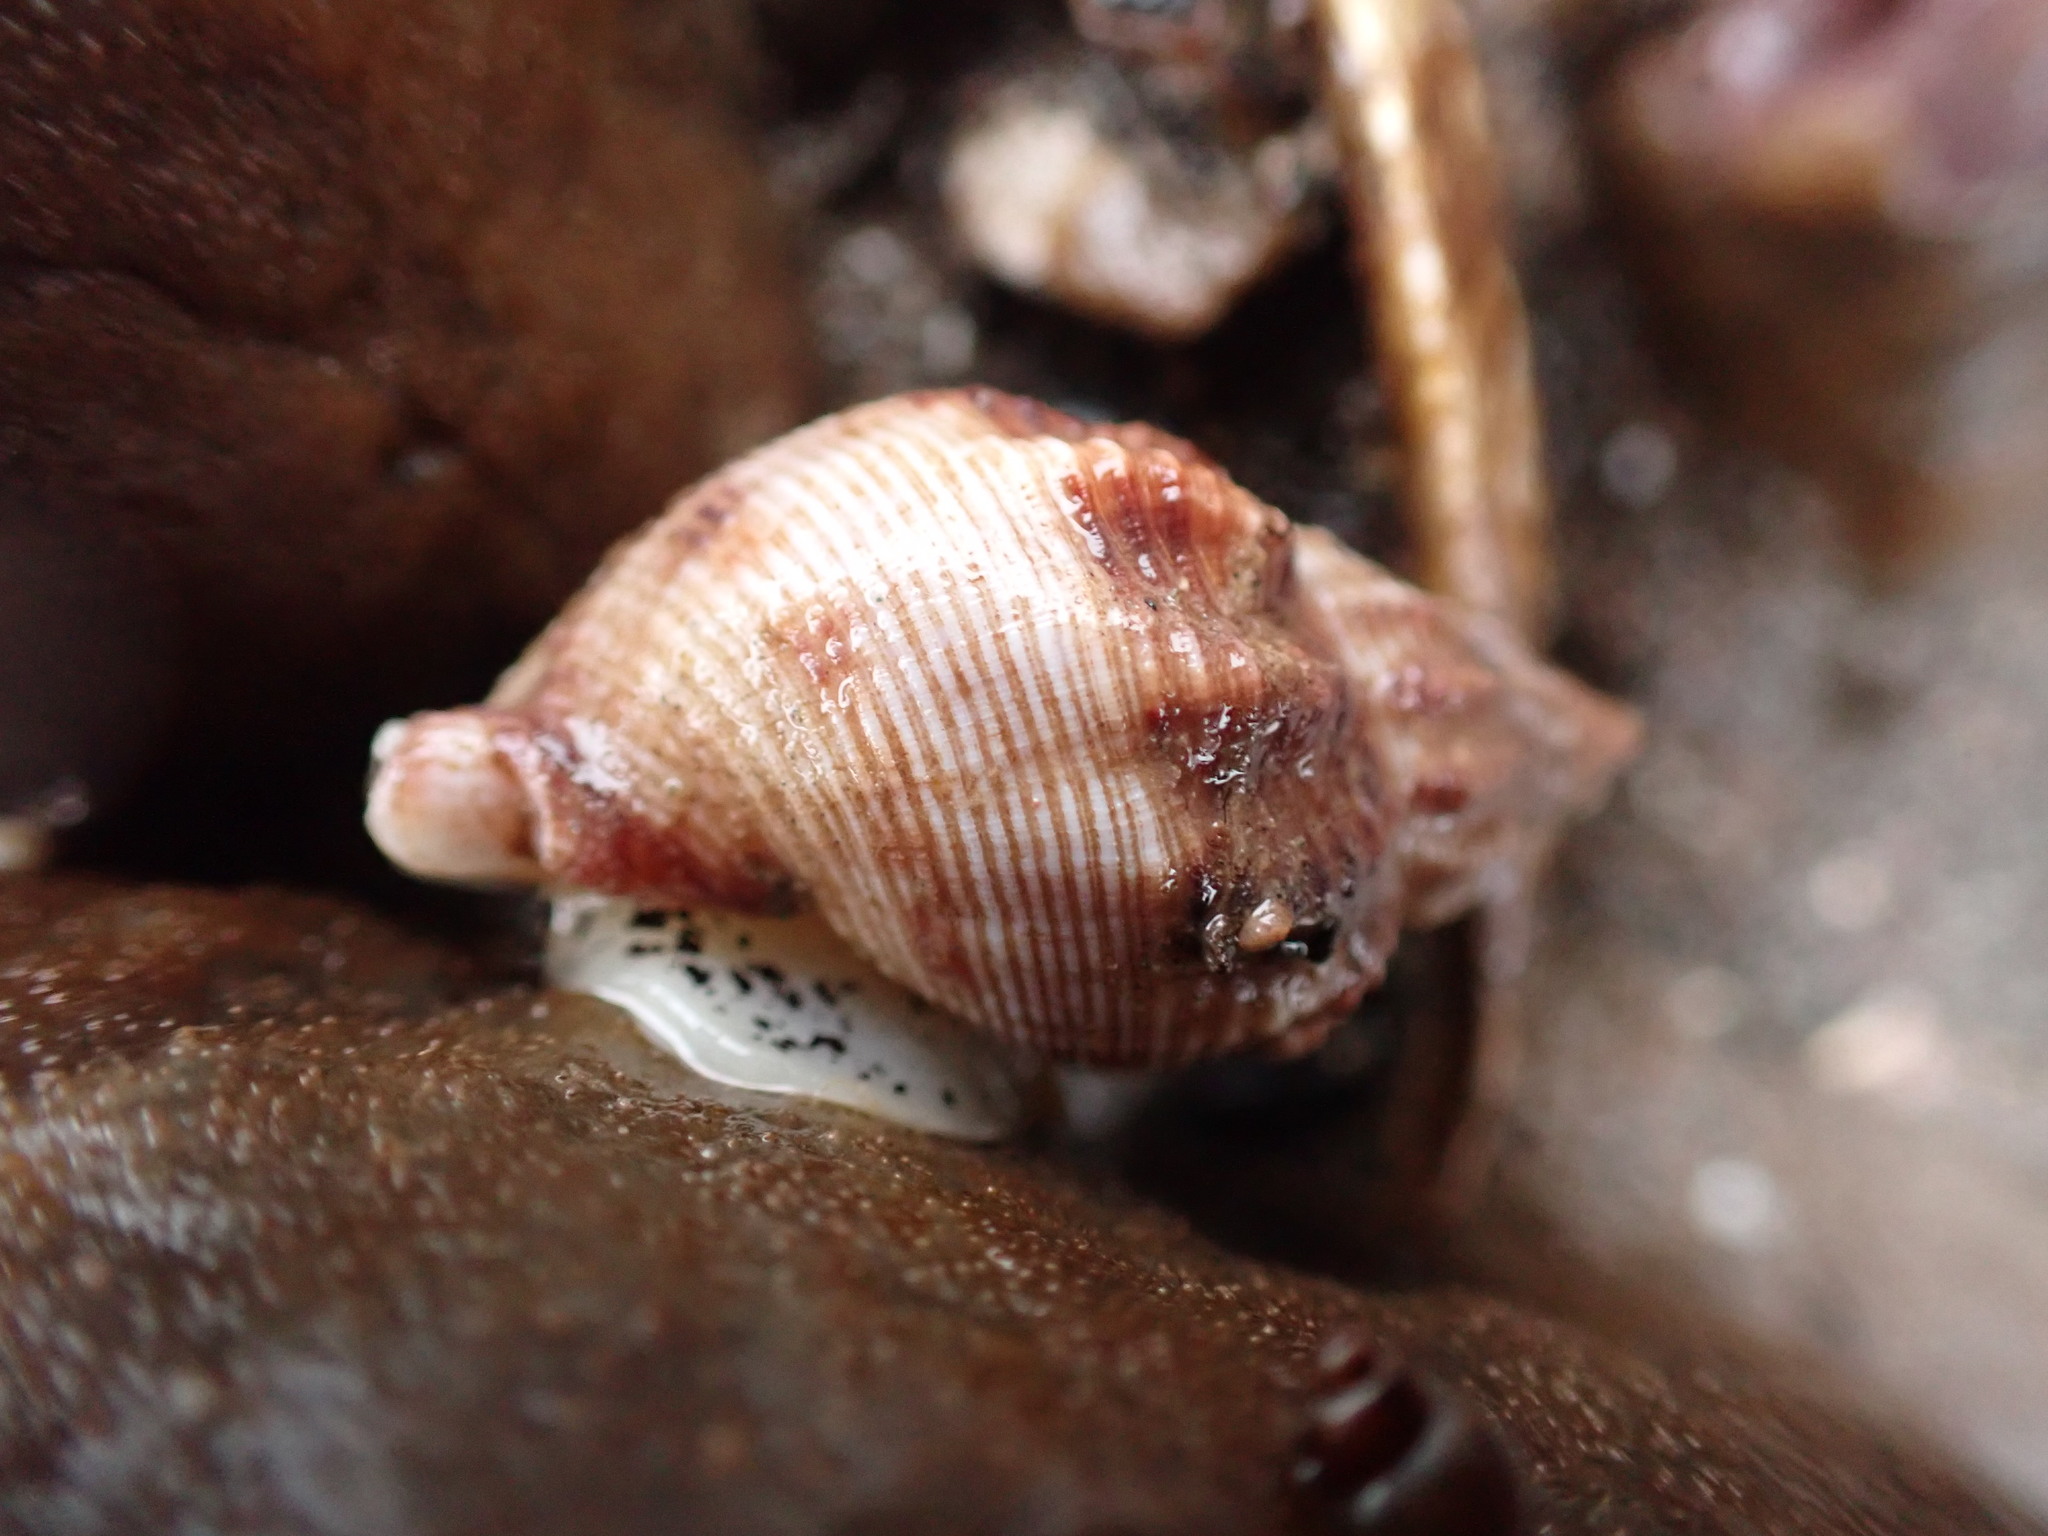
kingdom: Animalia
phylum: Mollusca
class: Gastropoda
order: Neogastropoda
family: Buccinidae
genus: Buccinum
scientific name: Buccinum undatum
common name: Common whelk
